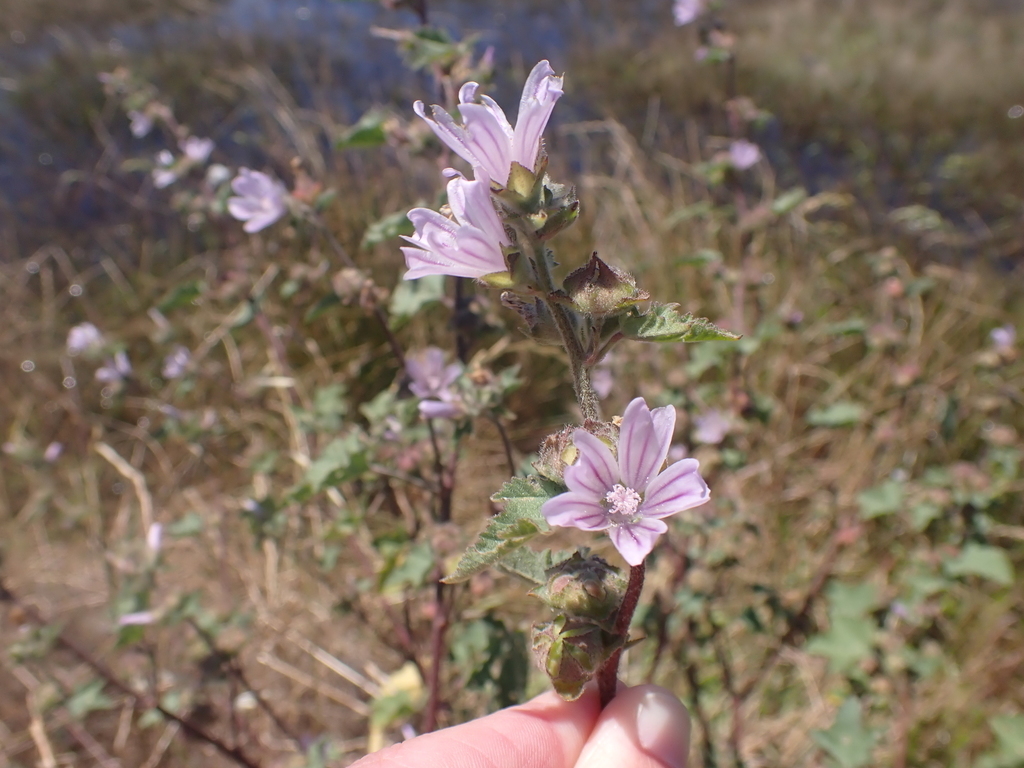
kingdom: Plantae
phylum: Tracheophyta
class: Magnoliopsida
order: Malvales
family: Malvaceae
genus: Malva
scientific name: Malva multiflora
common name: Cheeseweed
